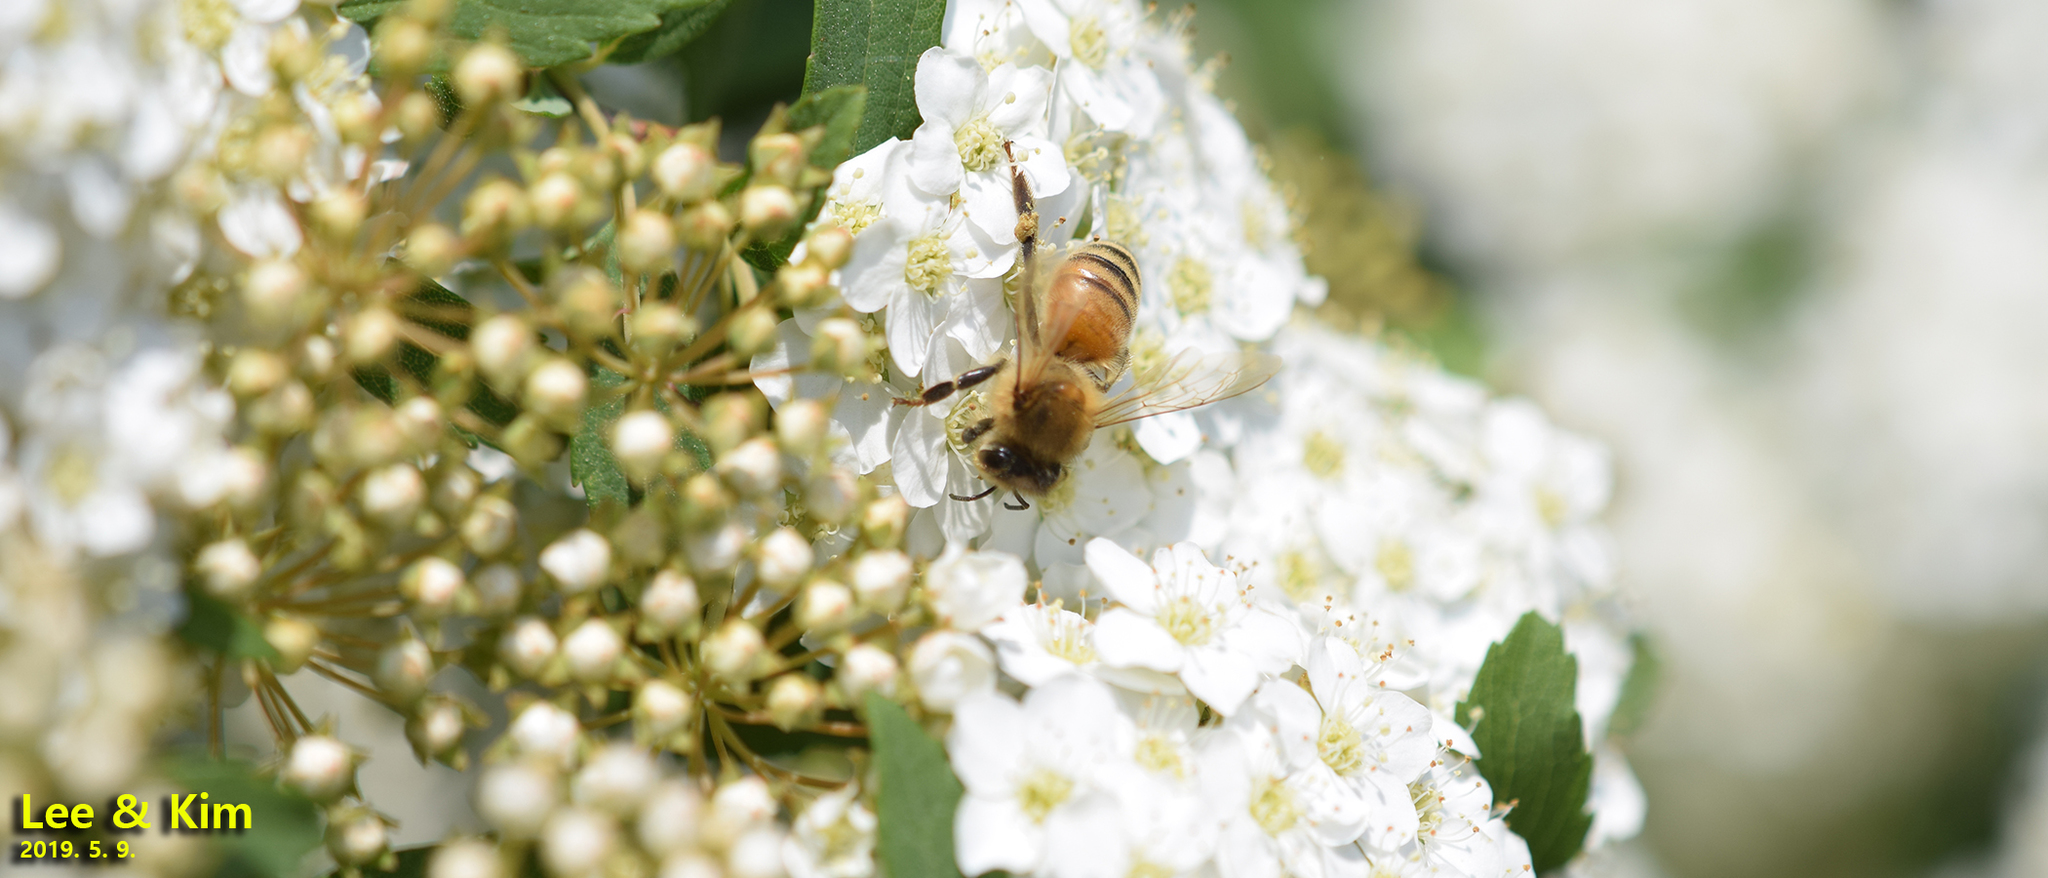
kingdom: Animalia
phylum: Arthropoda
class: Insecta
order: Hymenoptera
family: Apidae
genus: Apis
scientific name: Apis mellifera
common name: Honey bee
